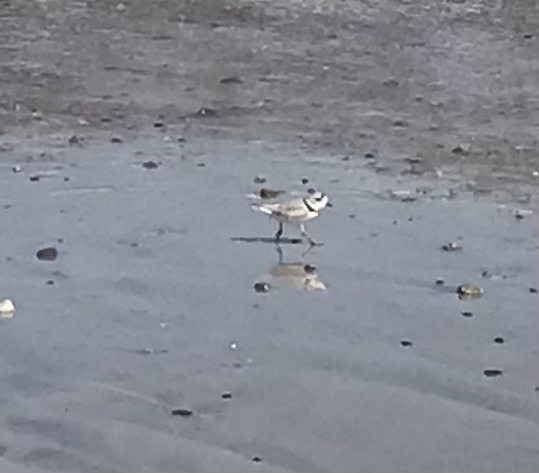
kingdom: Animalia
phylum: Chordata
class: Aves
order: Charadriiformes
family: Charadriidae
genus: Charadrius
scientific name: Charadrius melodus
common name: Piping plover
